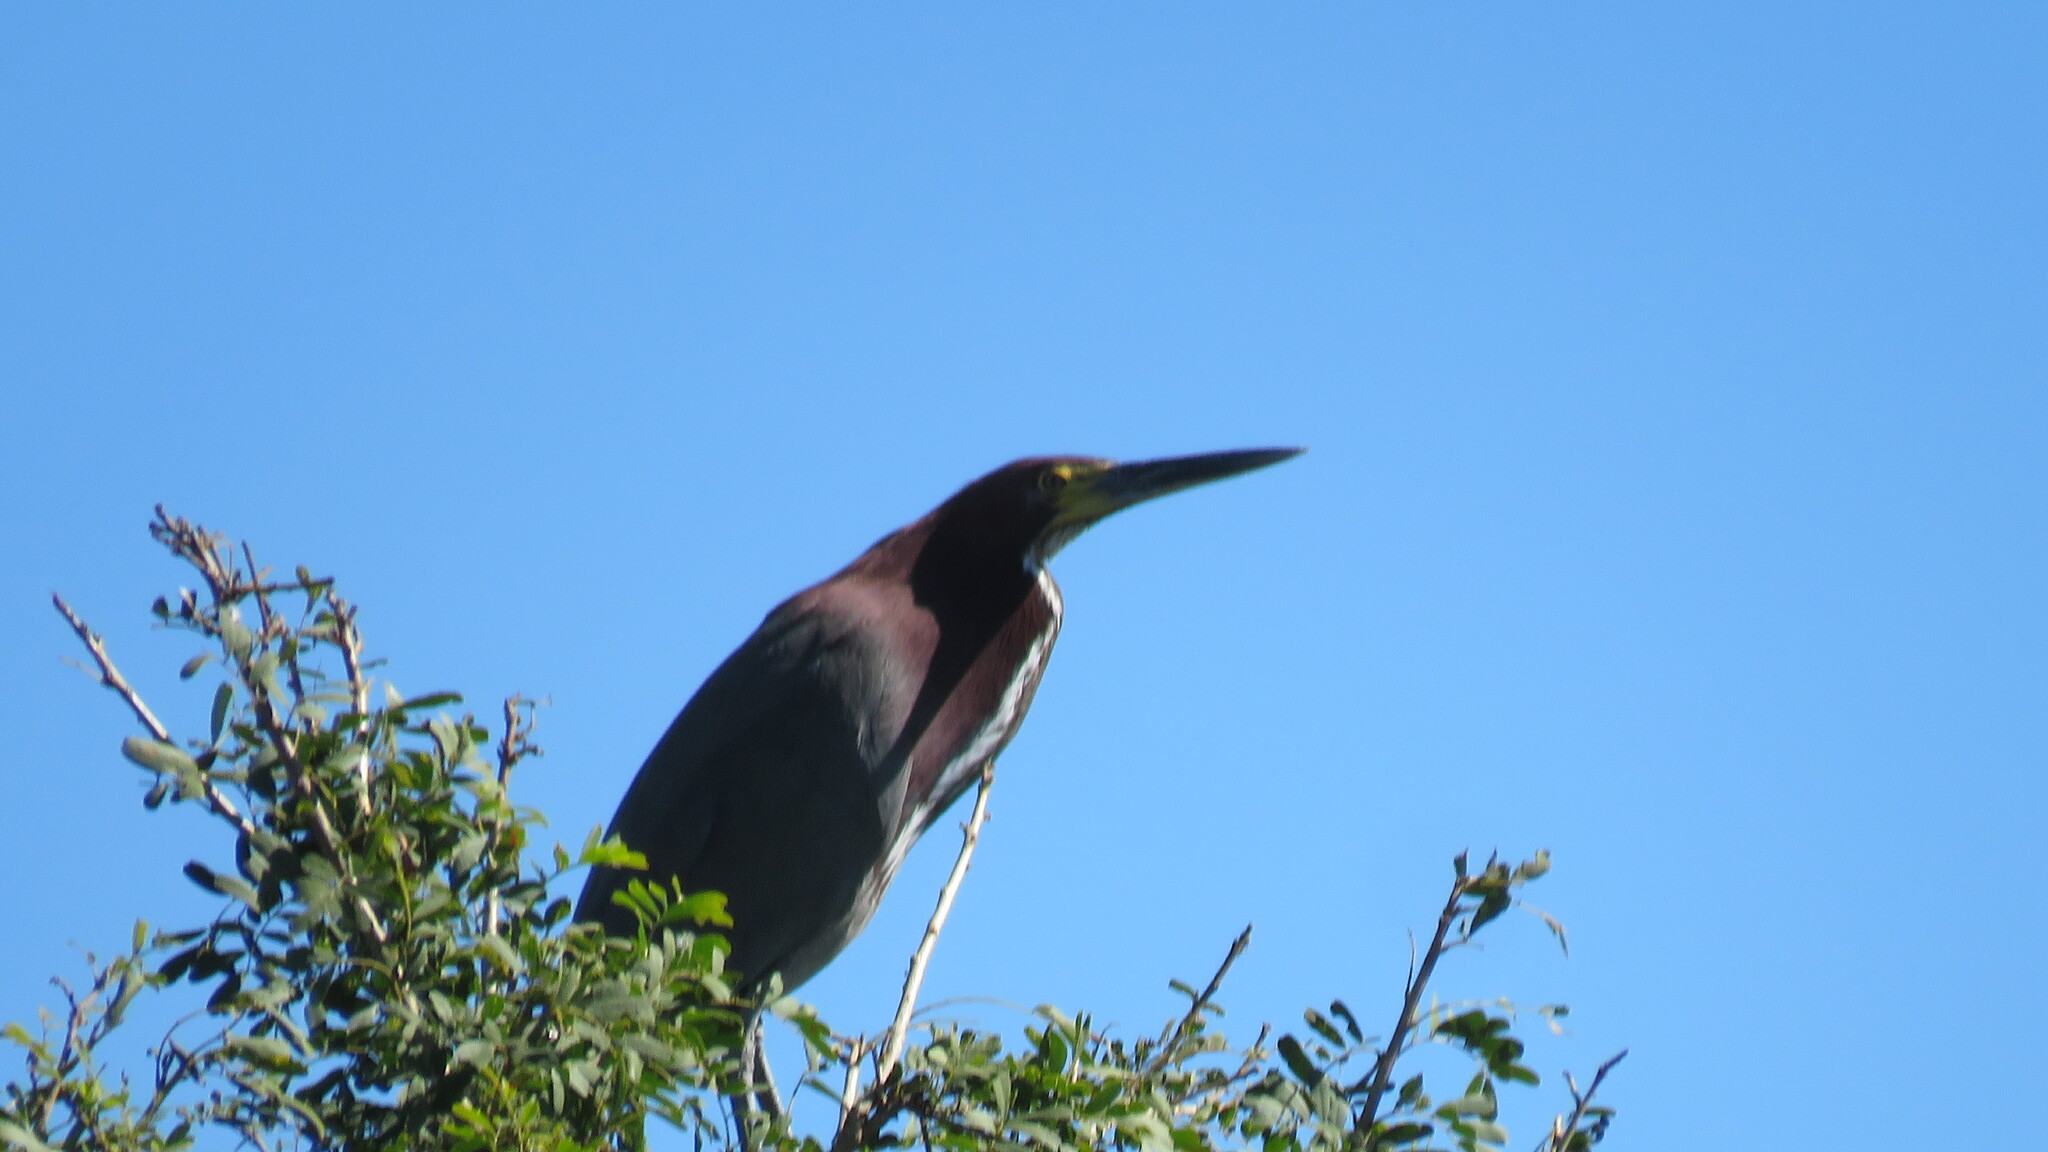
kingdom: Animalia
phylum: Chordata
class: Aves
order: Pelecaniformes
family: Ardeidae
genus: Tigrisoma
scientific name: Tigrisoma lineatum
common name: Rufescent tiger-heron
